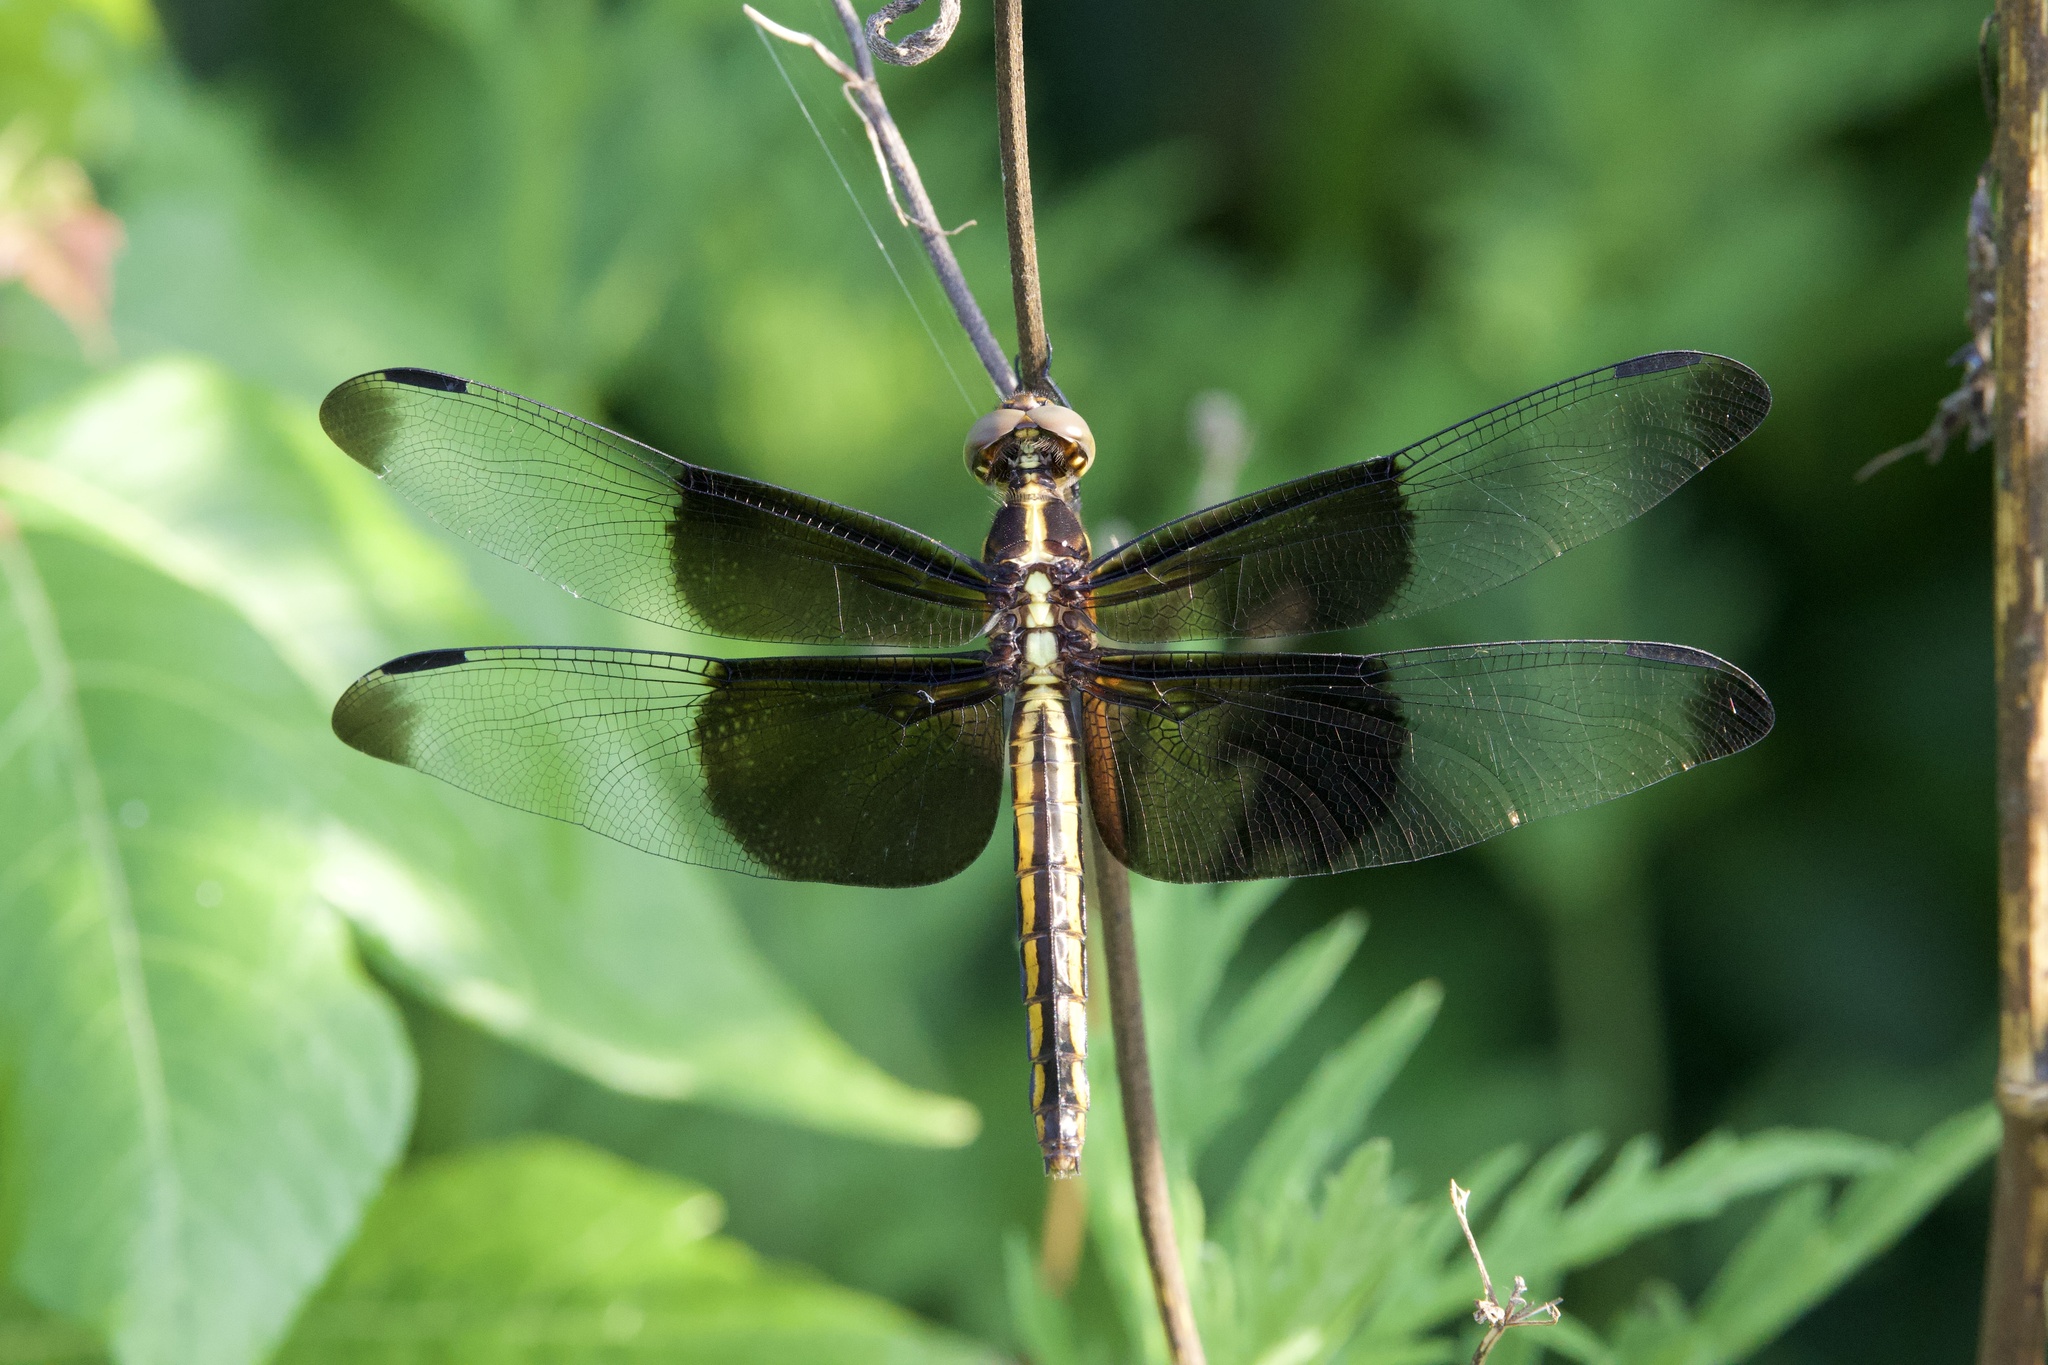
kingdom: Animalia
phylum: Arthropoda
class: Insecta
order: Odonata
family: Libellulidae
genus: Libellula
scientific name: Libellula luctuosa
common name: Widow skimmer
